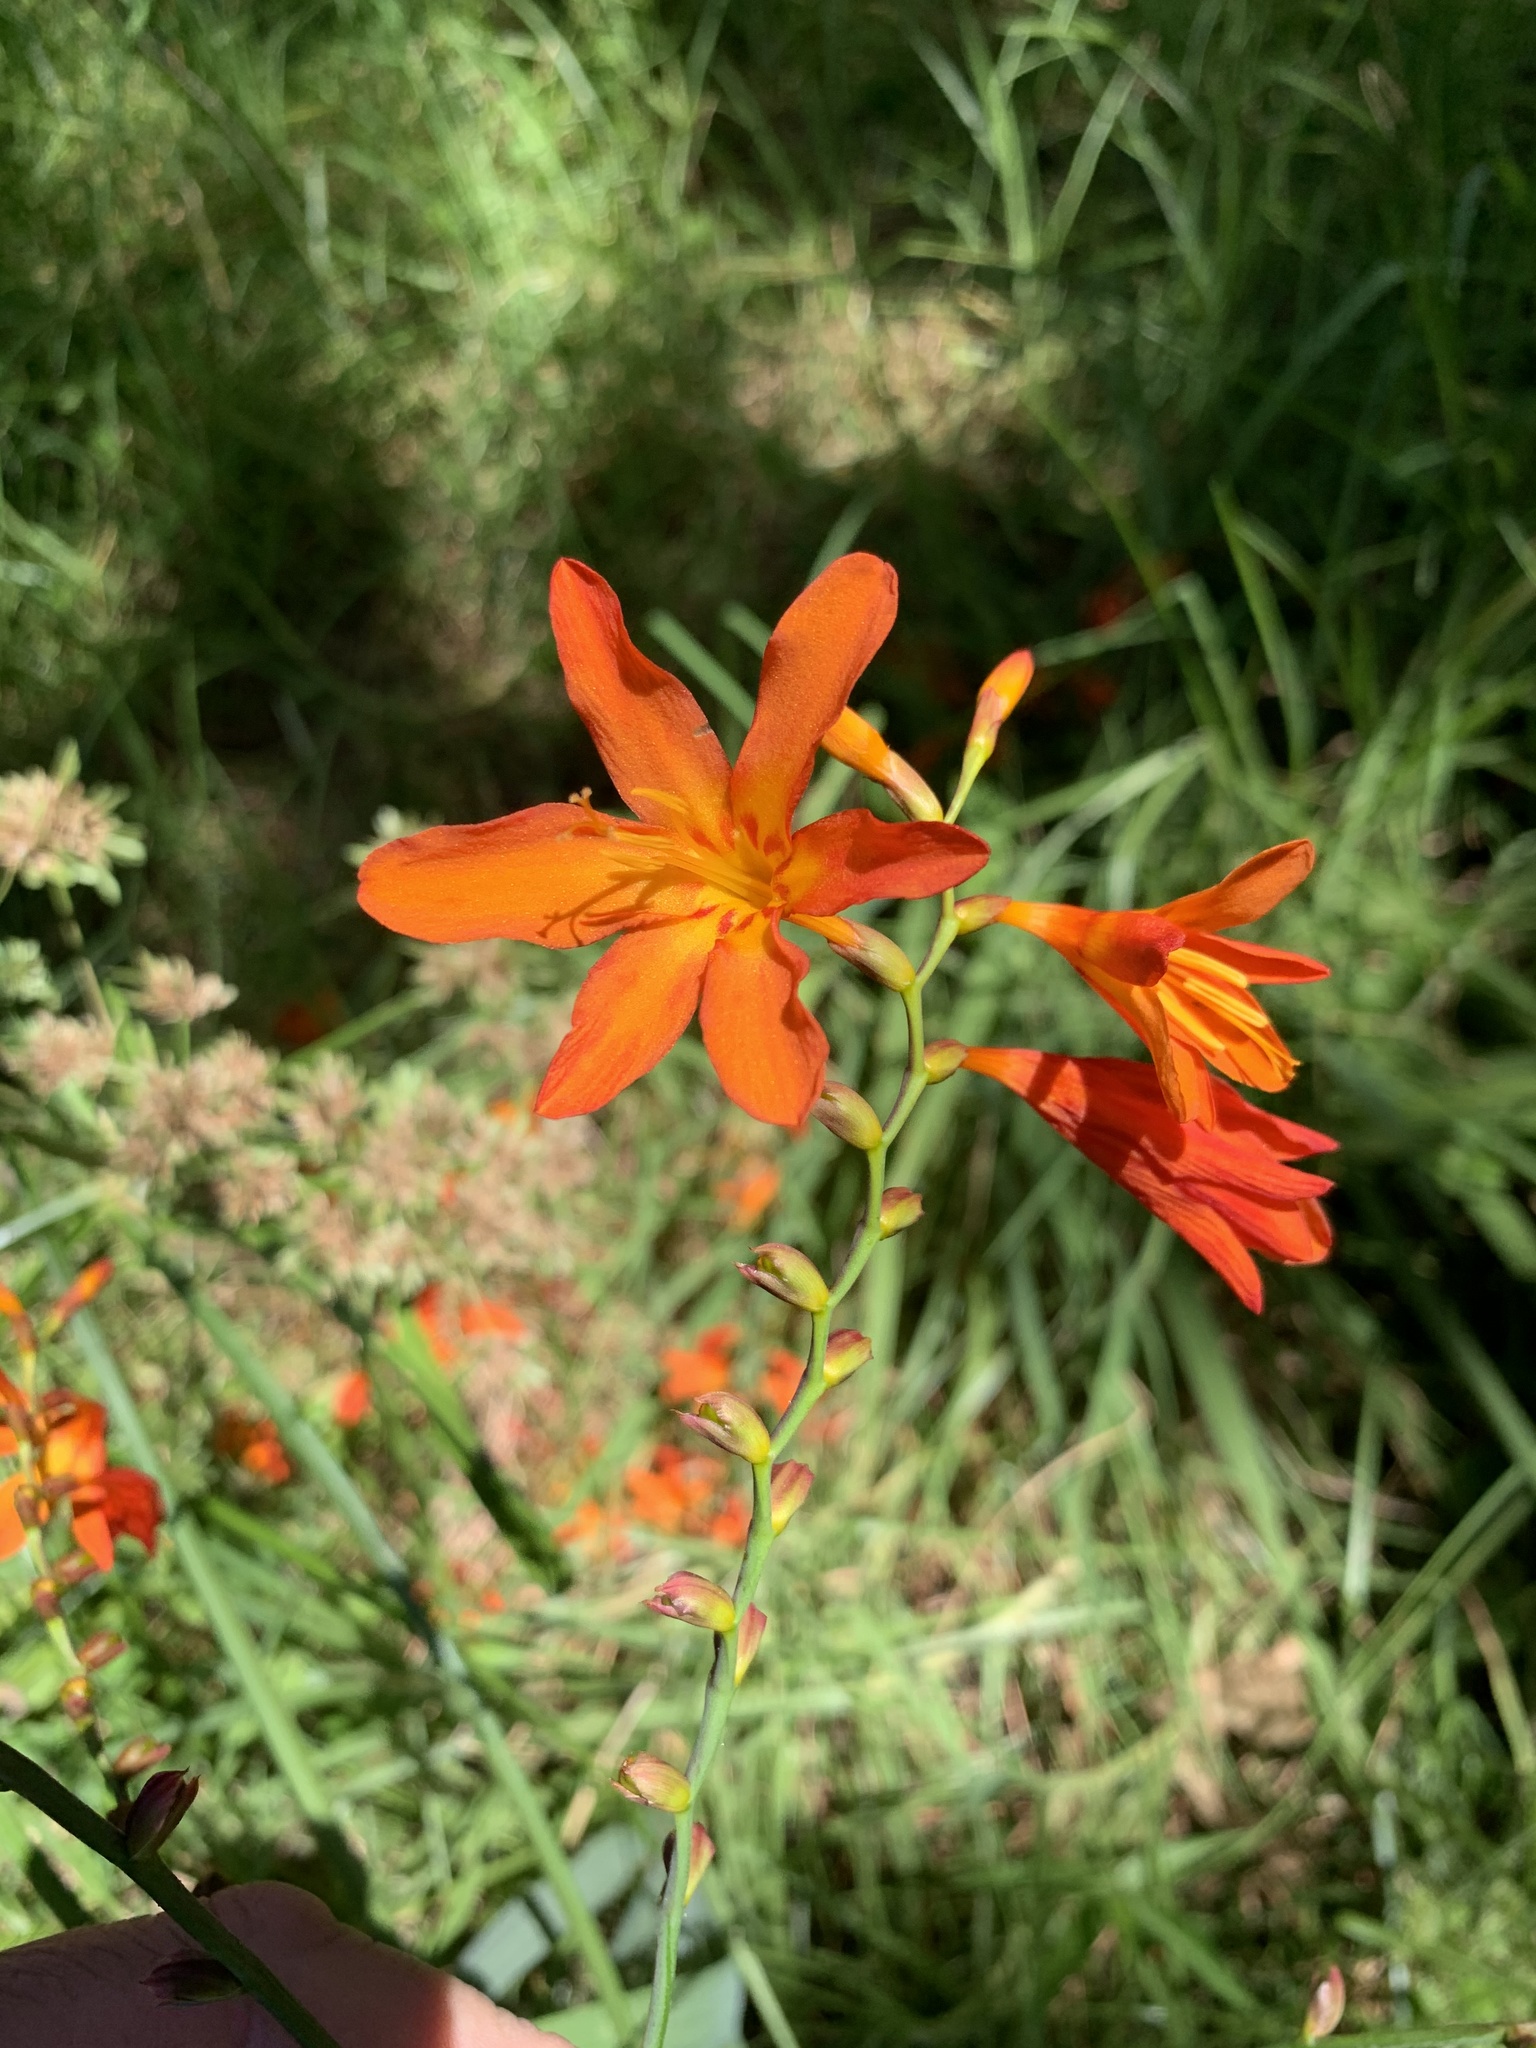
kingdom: Plantae
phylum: Tracheophyta
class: Liliopsida
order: Asparagales
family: Iridaceae
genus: Crocosmia
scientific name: Crocosmia crocosmiiflora
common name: Montbretia
